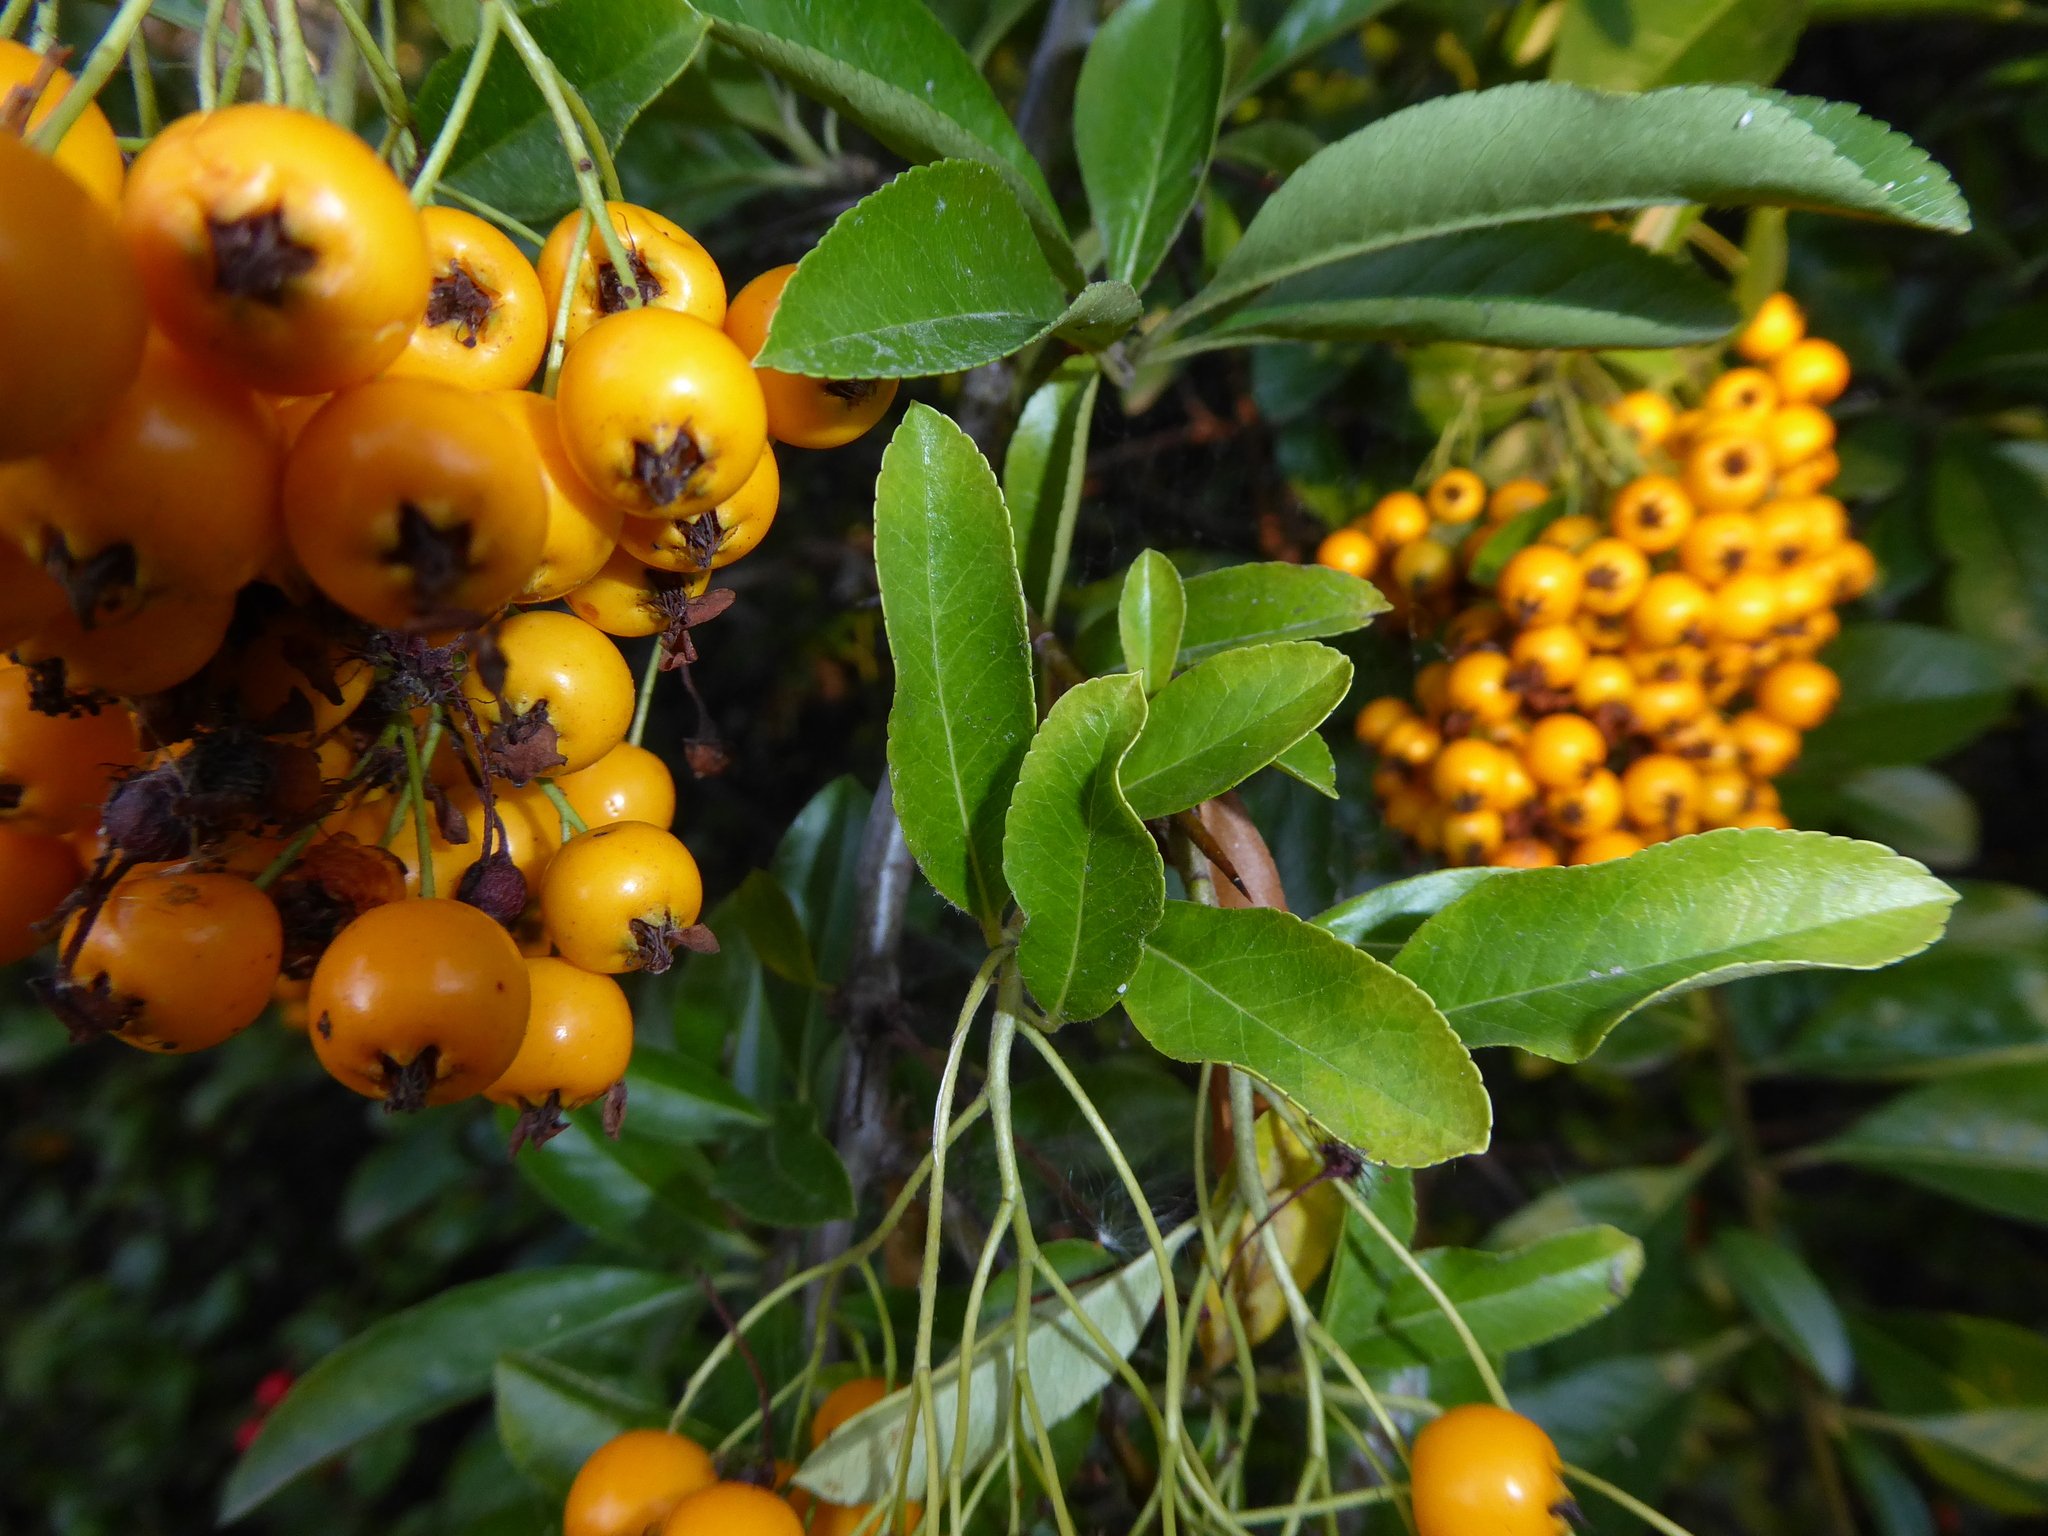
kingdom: Plantae
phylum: Tracheophyta
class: Magnoliopsida
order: Rosales
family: Rosaceae
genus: Pyracantha
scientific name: Pyracantha coccinea
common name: Firethorn
